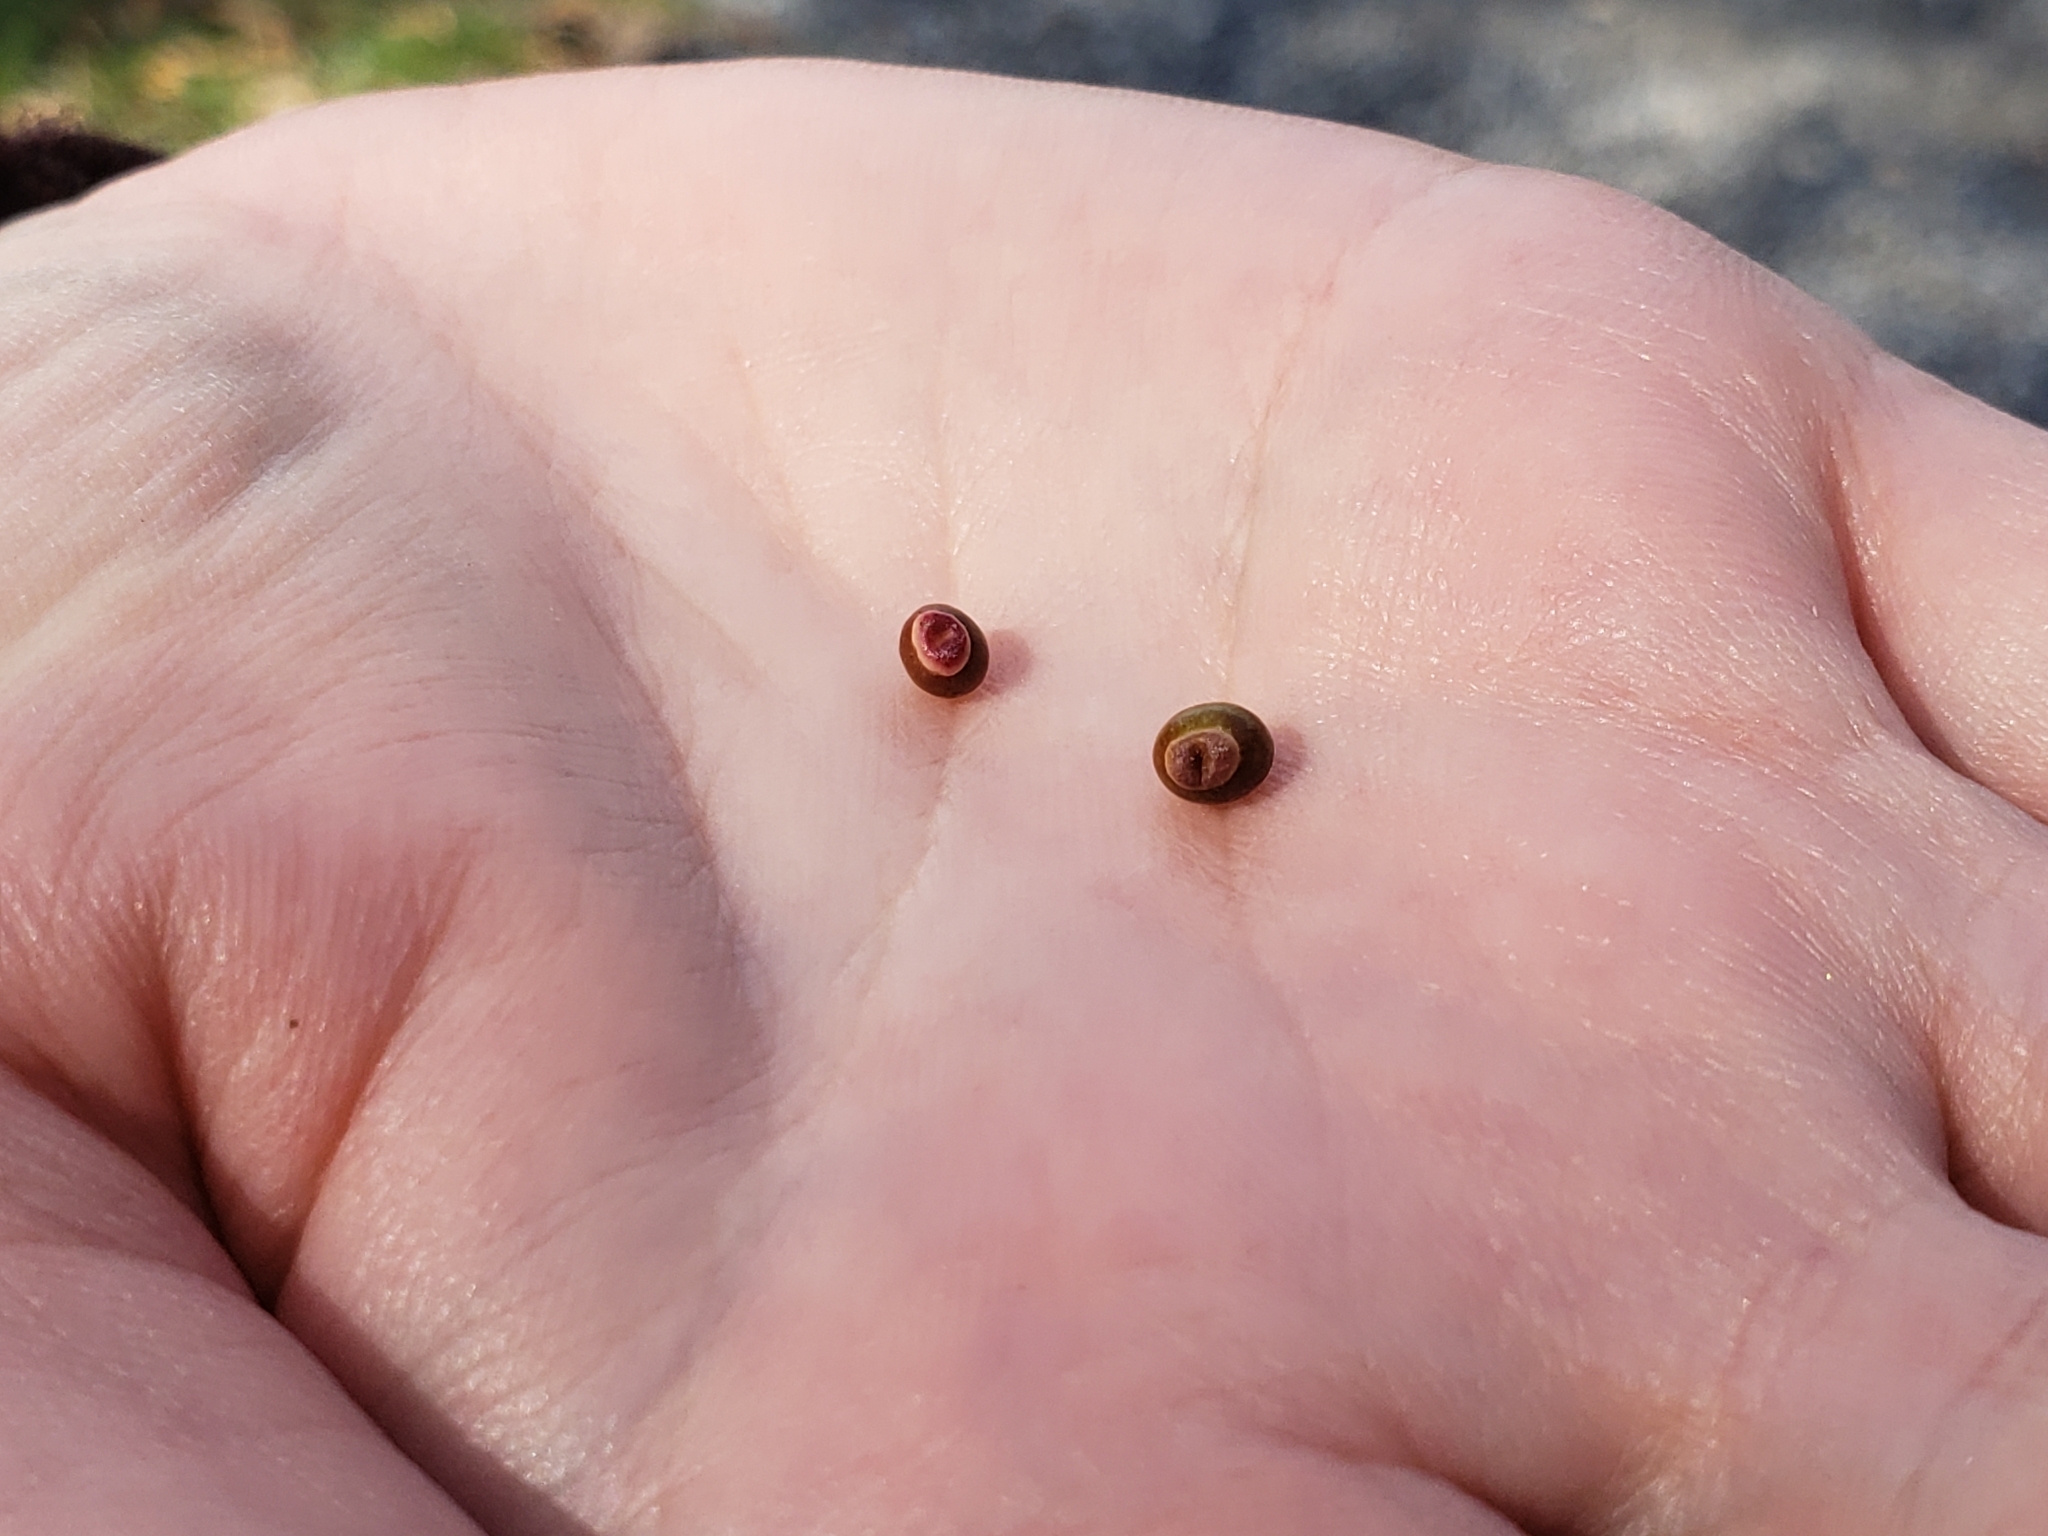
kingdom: Animalia
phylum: Arthropoda
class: Insecta
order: Hymenoptera
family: Cynipidae
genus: Kokkocynips
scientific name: Kokkocynips rileyi
